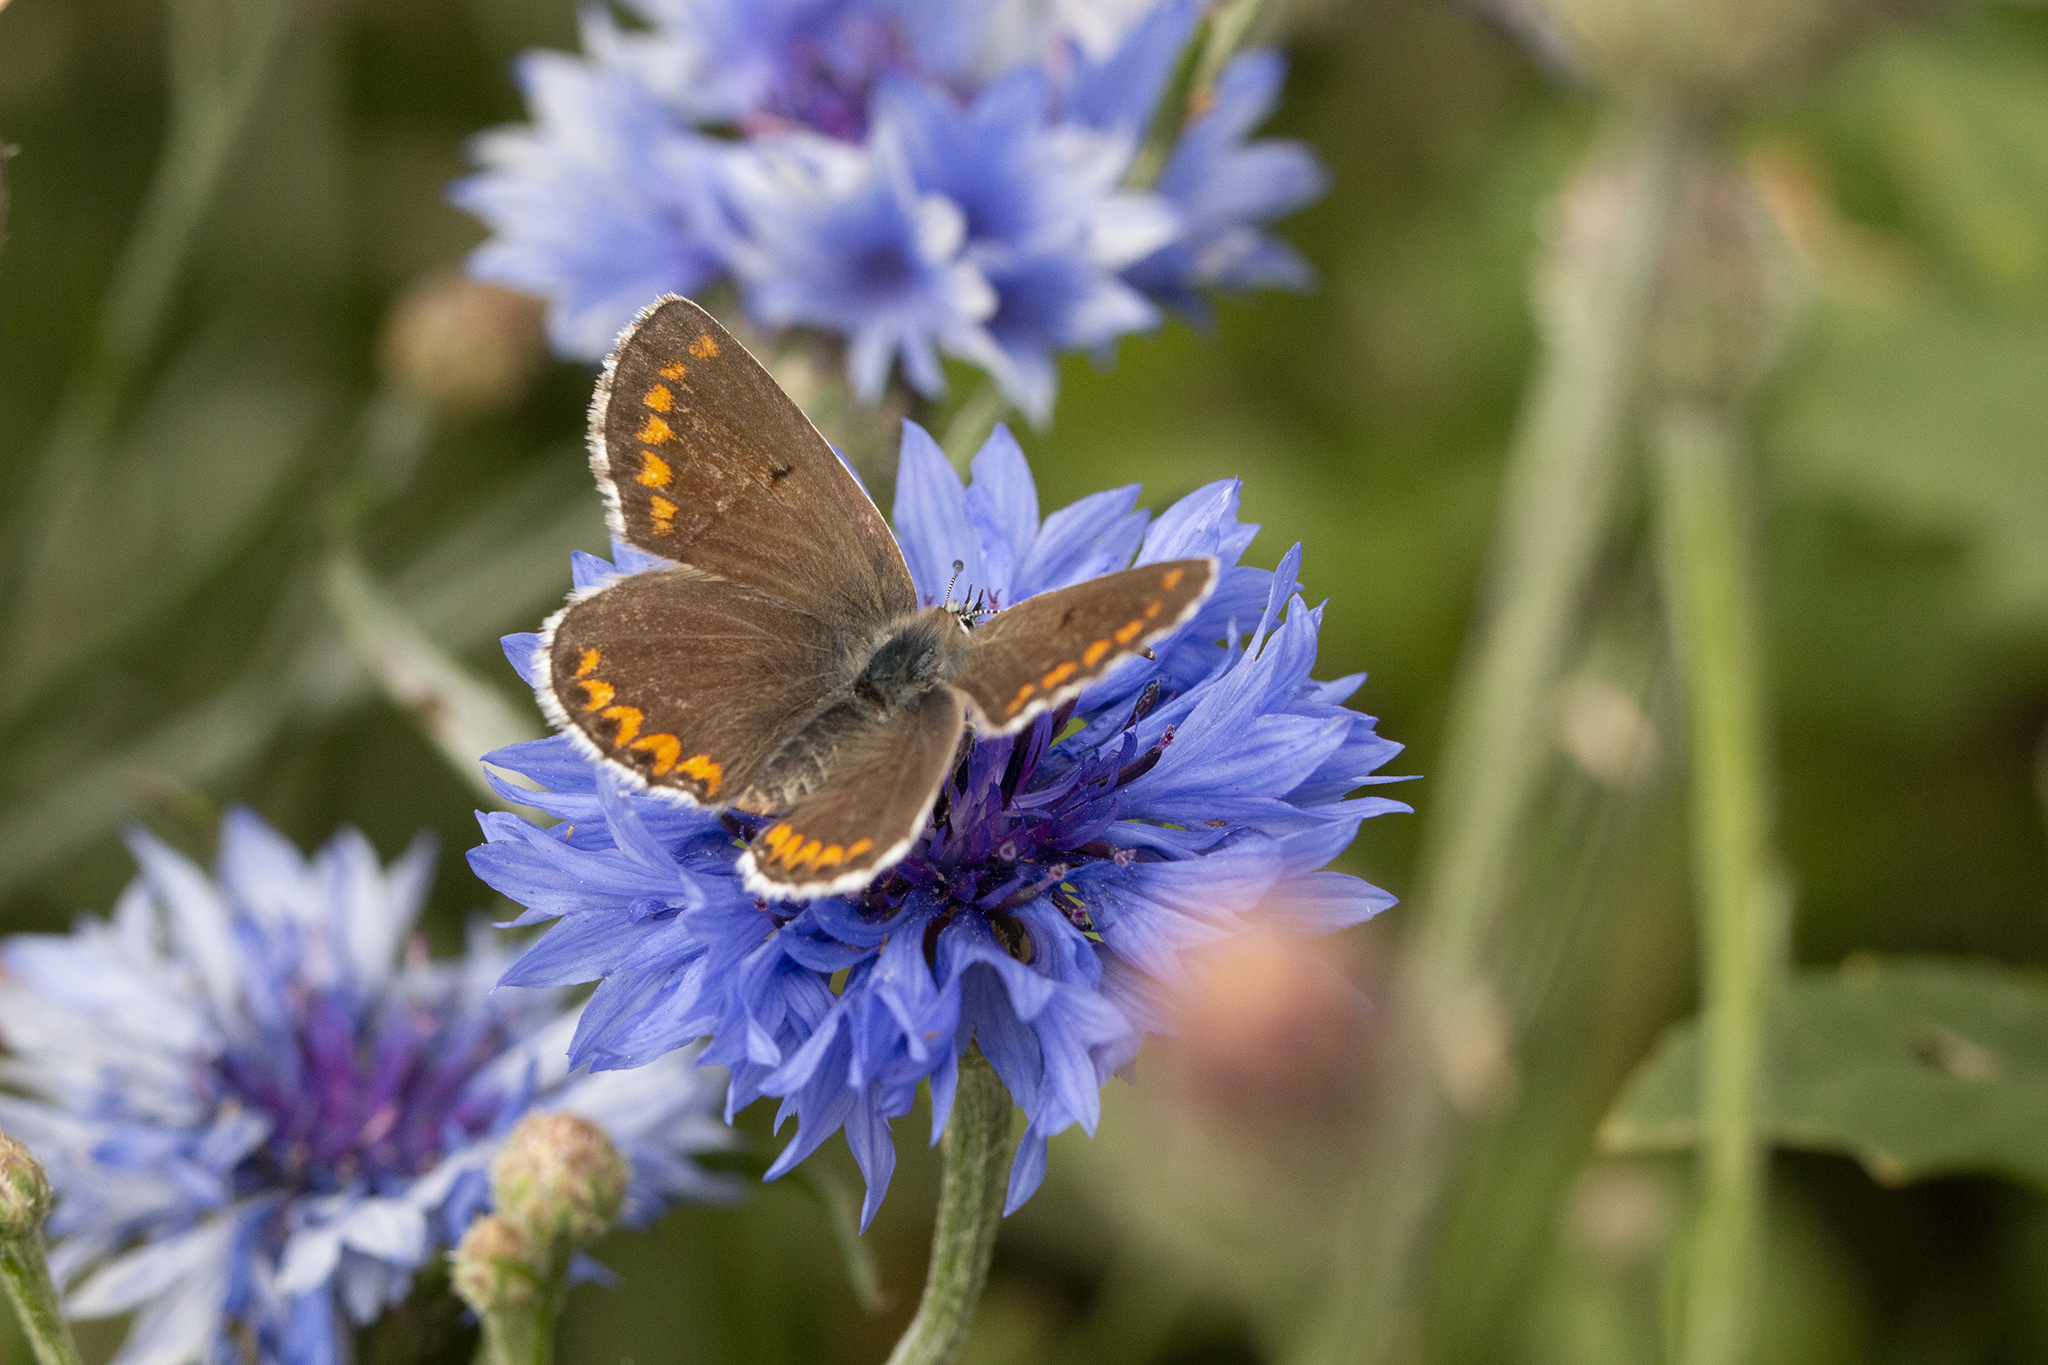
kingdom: Animalia
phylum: Arthropoda
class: Insecta
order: Lepidoptera
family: Lycaenidae
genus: Aricia
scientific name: Aricia agestis
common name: Brown argus
